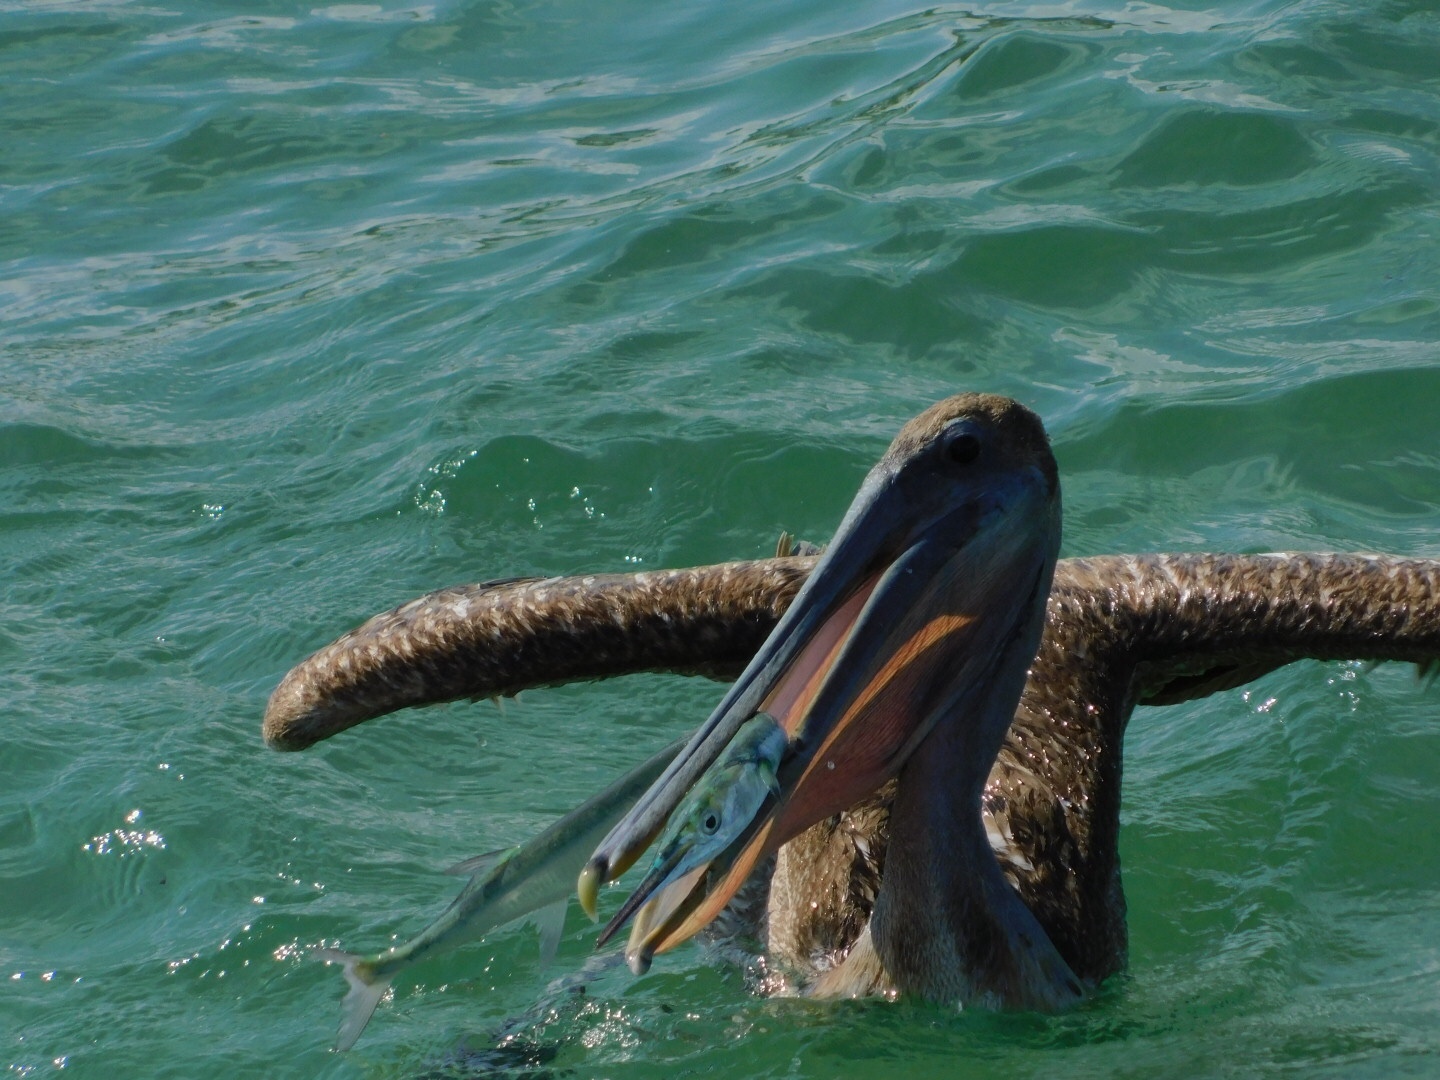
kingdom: Animalia
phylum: Chordata
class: Aves
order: Pelecaniformes
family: Pelecanidae
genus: Pelecanus
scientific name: Pelecanus occidentalis
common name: Brown pelican
